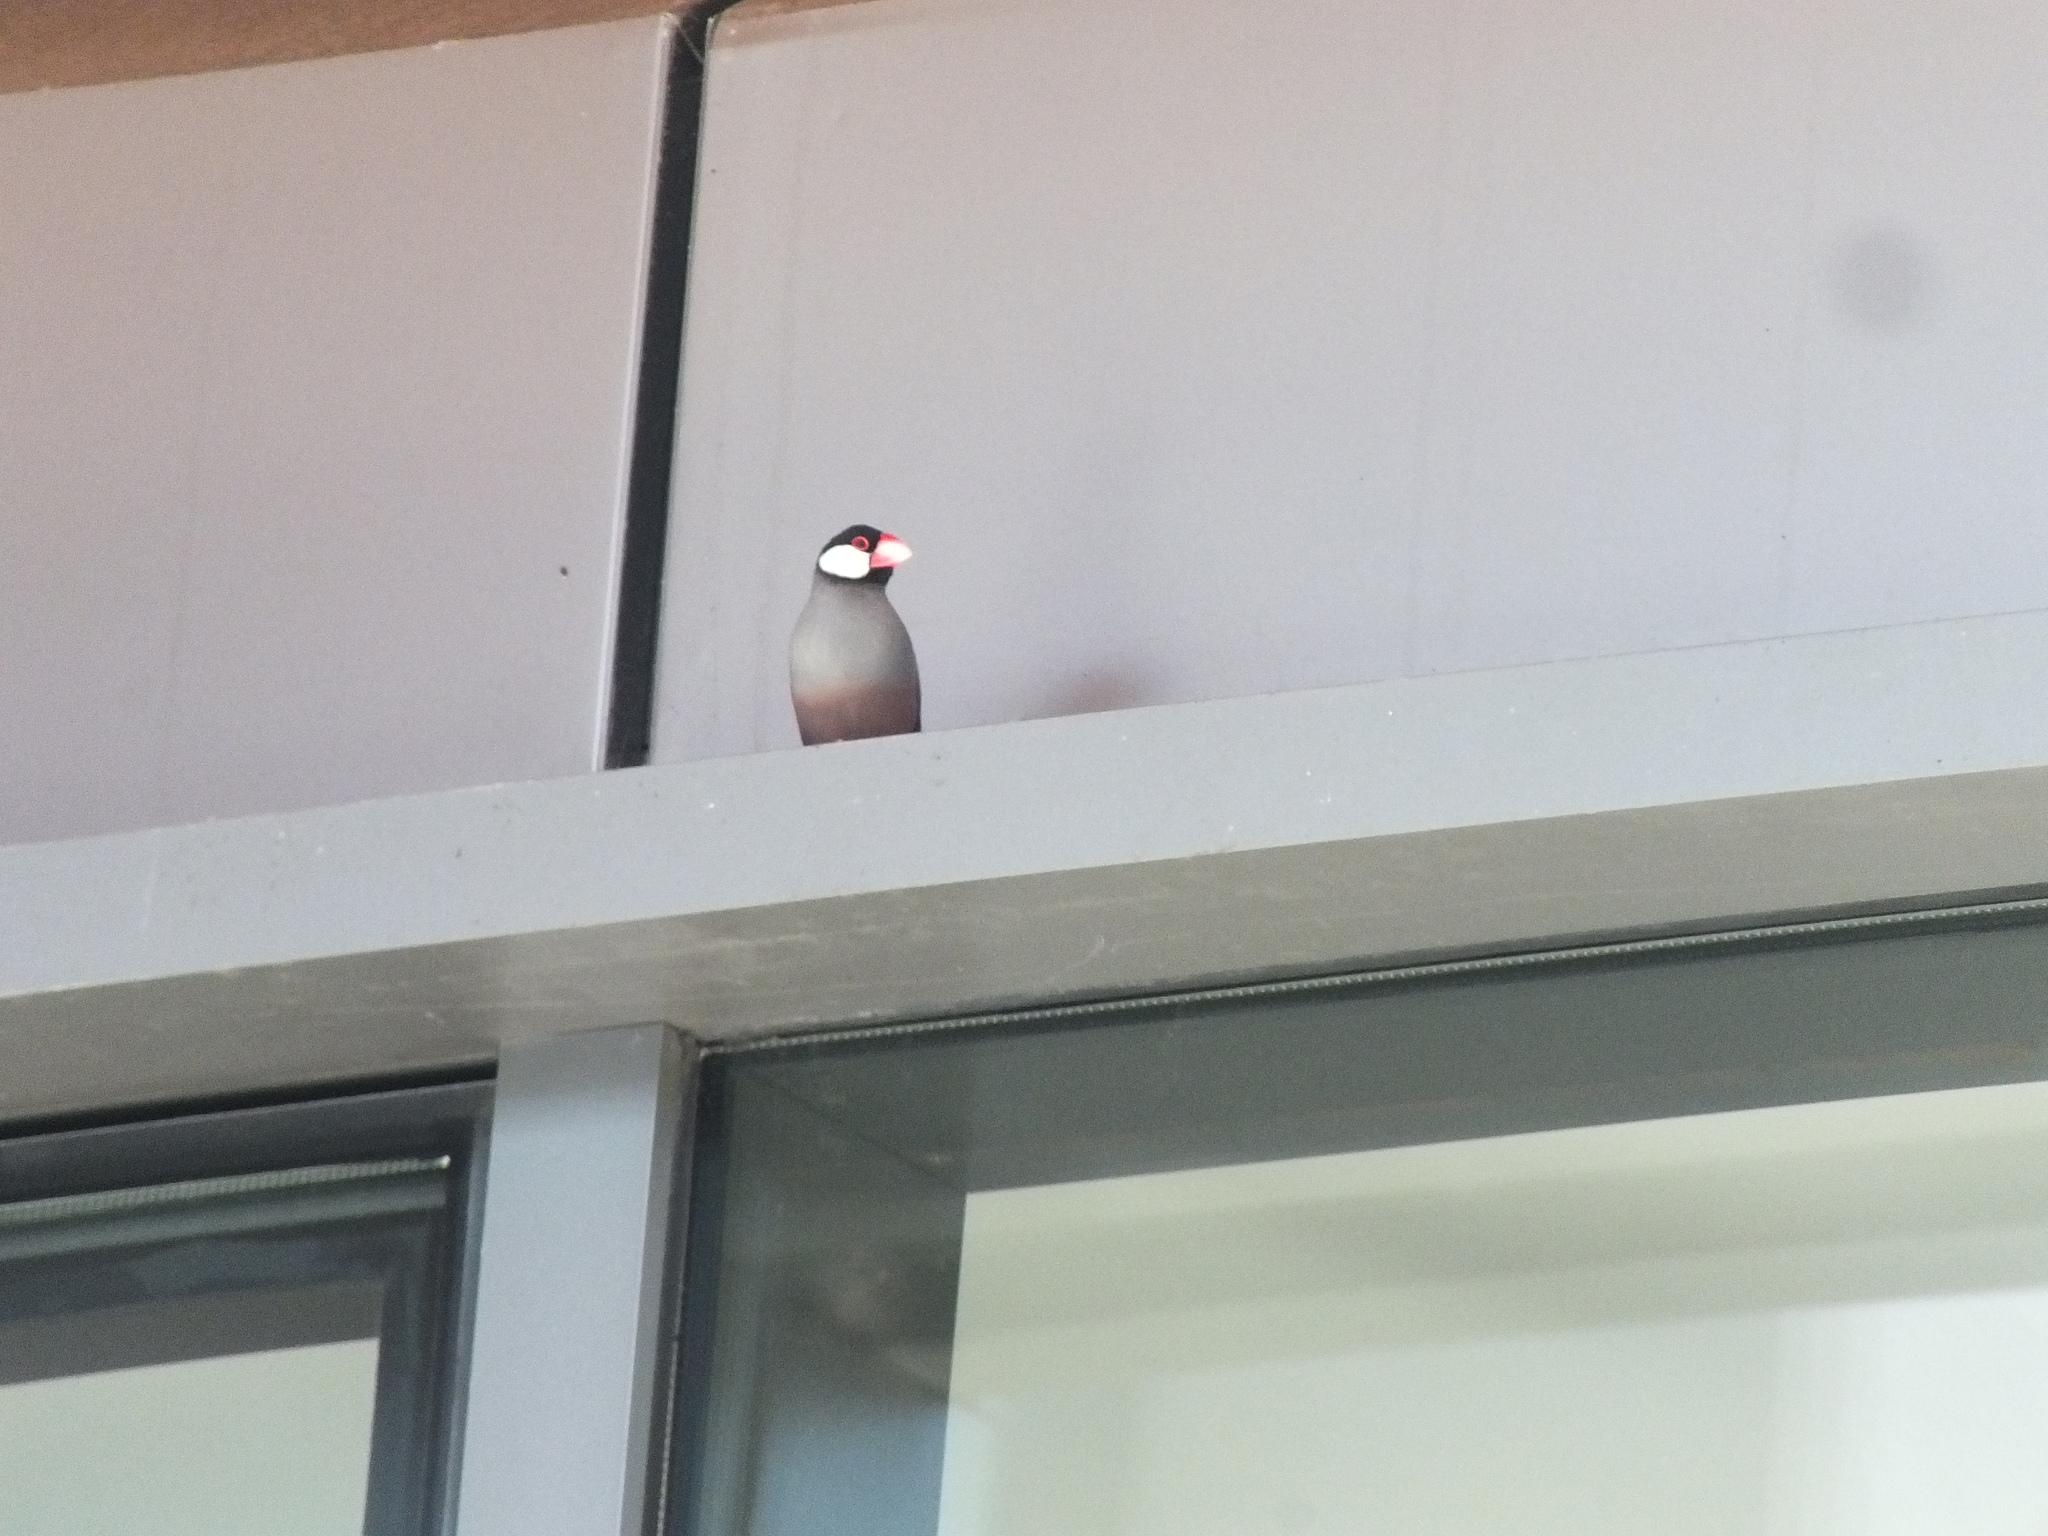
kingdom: Animalia
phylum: Chordata
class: Aves
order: Passeriformes
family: Estrildidae
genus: Lonchura
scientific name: Lonchura oryzivora
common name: Java sparrow
